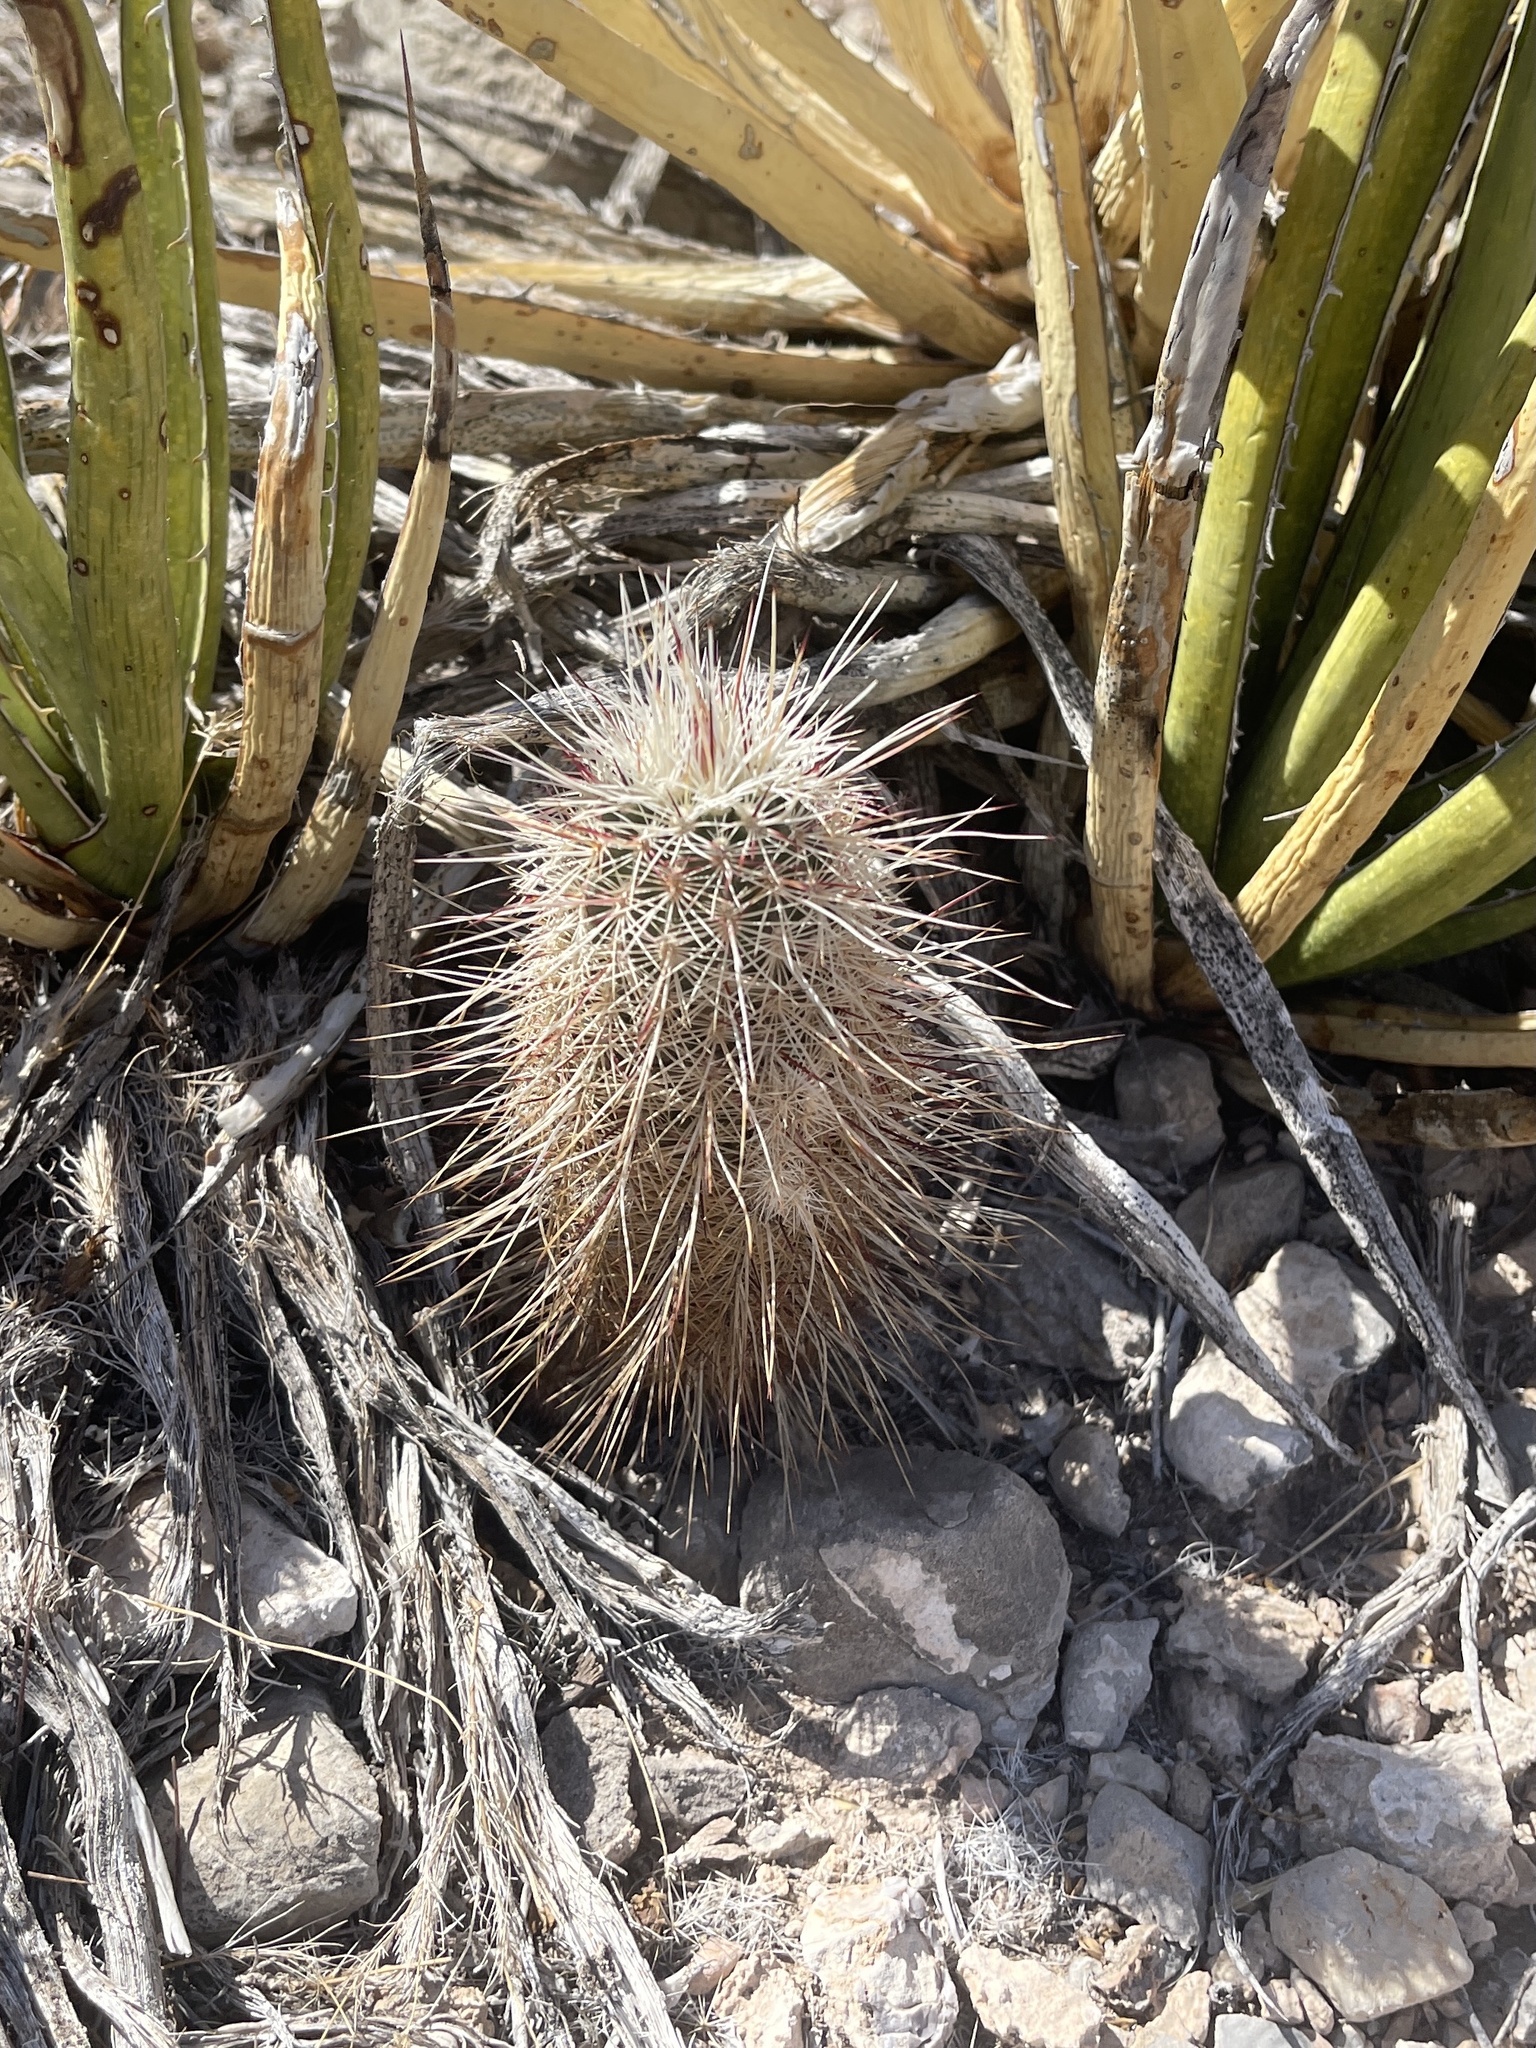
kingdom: Plantae
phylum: Tracheophyta
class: Magnoliopsida
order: Caryophyllales
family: Cactaceae
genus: Echinocereus
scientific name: Echinocereus viridiflorus
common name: Nylon hedgehog cactus
